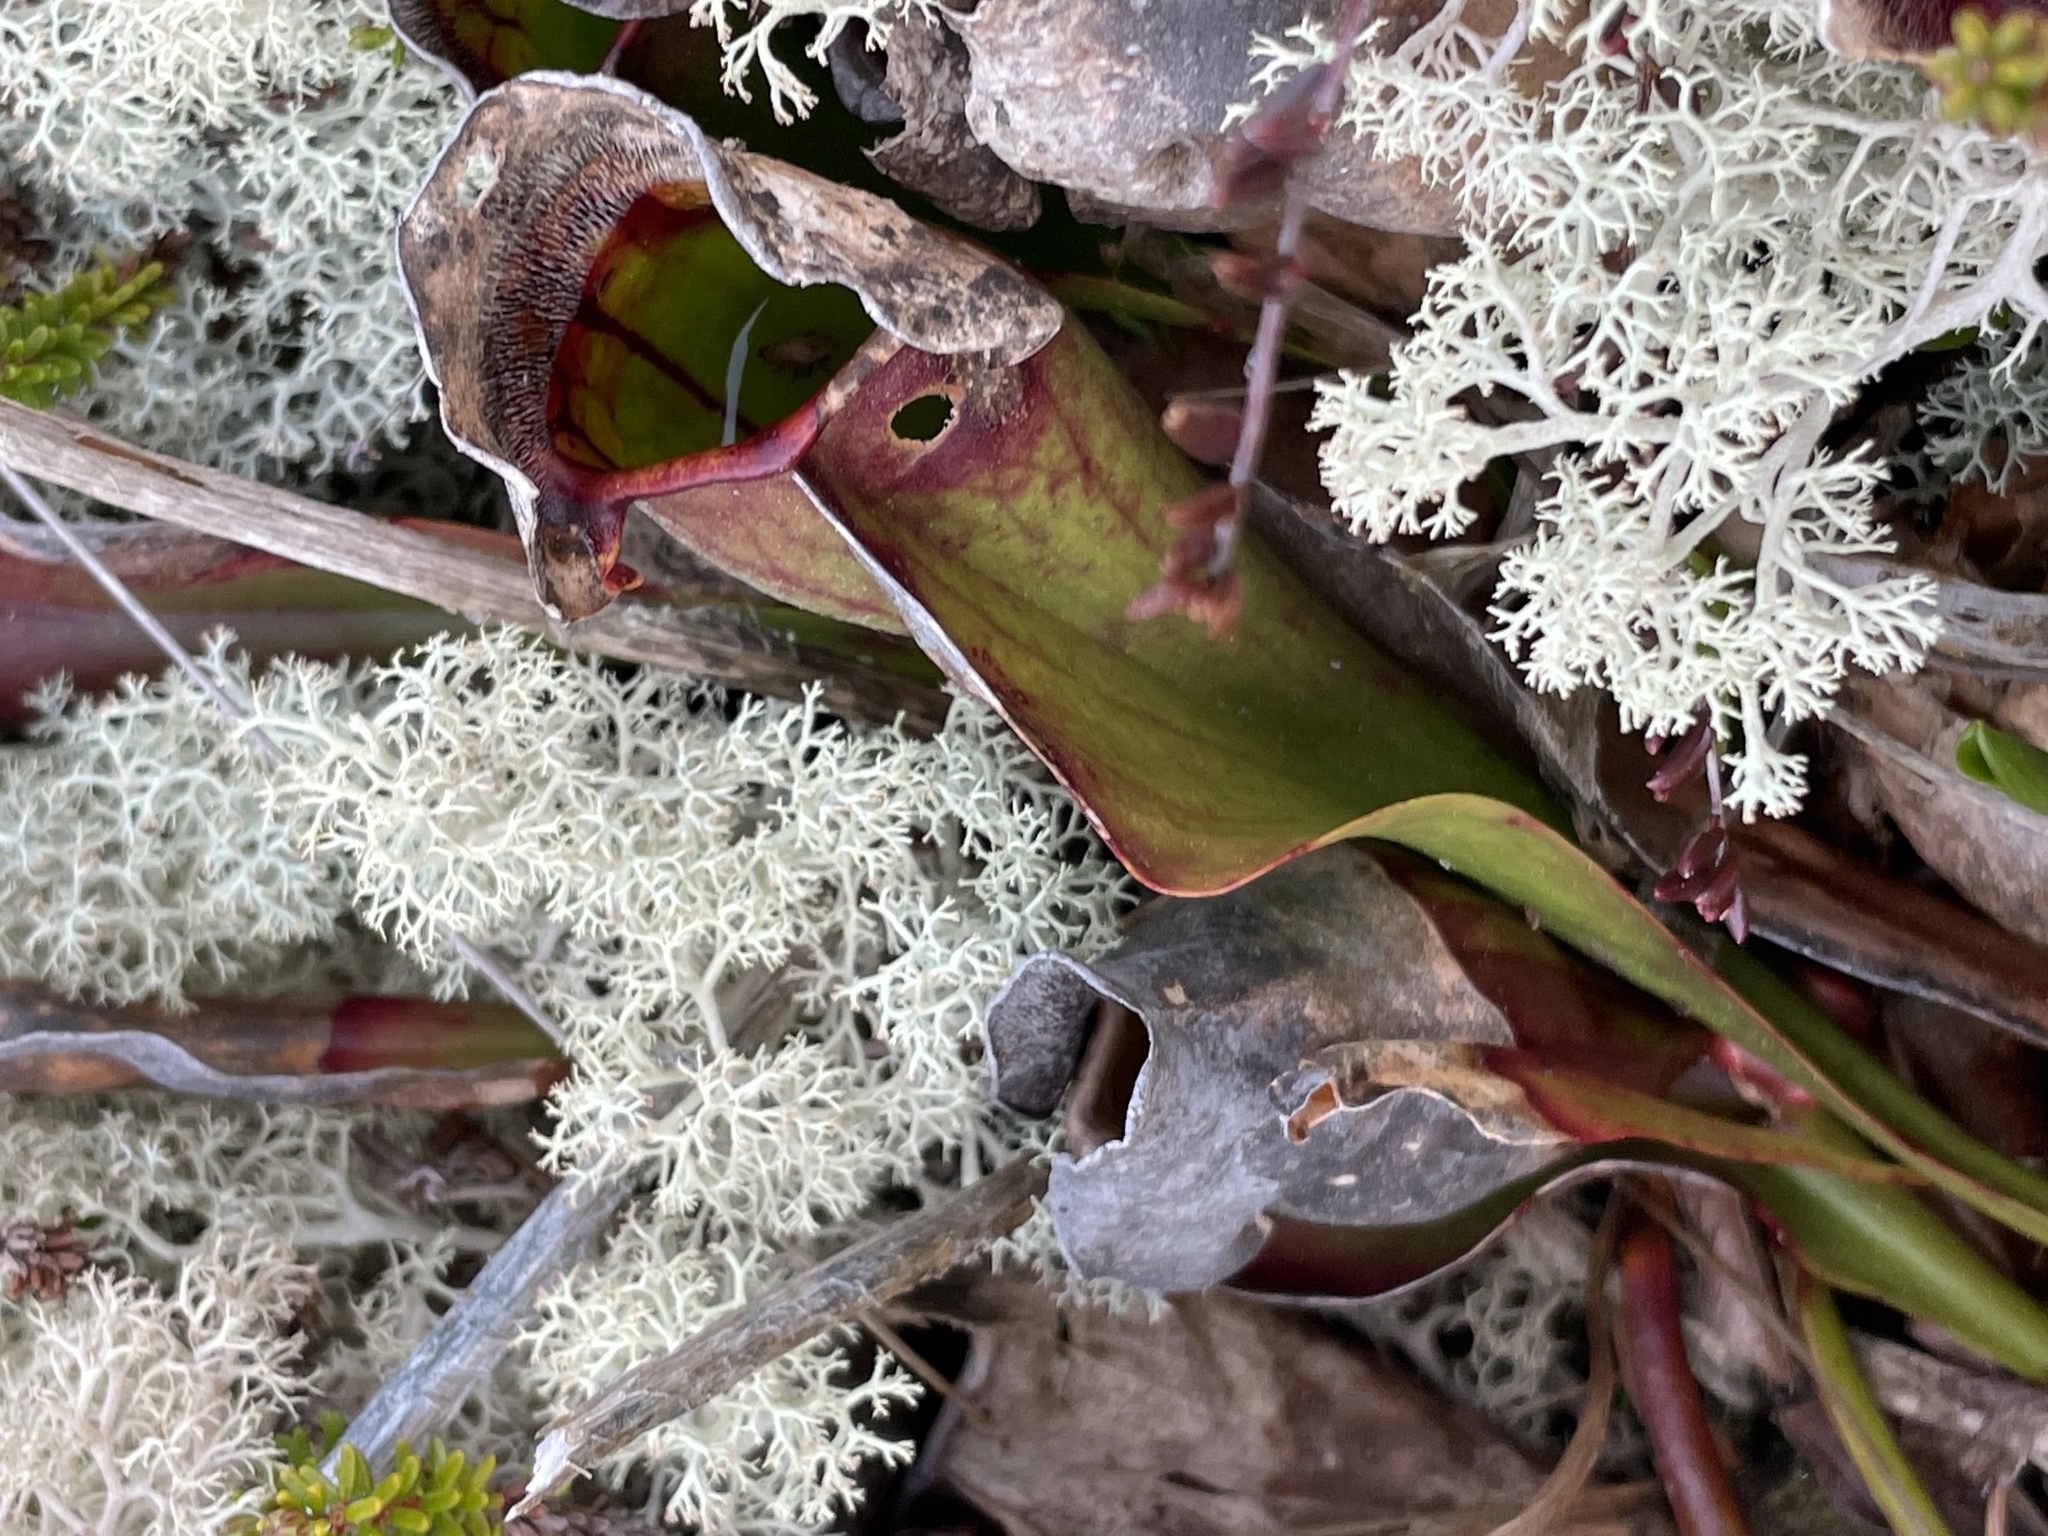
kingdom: Plantae
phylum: Tracheophyta
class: Magnoliopsida
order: Ericales
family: Sarraceniaceae
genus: Sarracenia
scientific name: Sarracenia purpurea
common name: Pitcherplant
